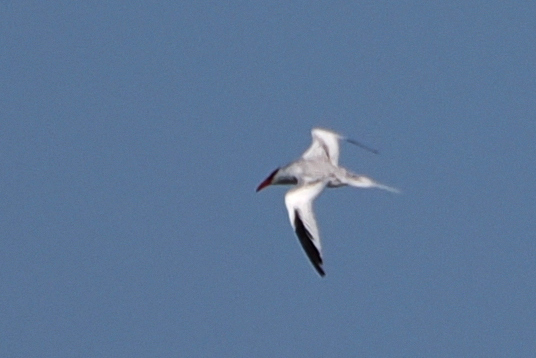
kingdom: Animalia
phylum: Chordata
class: Aves
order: Phaethontiformes
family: Phaethontidae
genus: Phaethon
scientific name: Phaethon aethereus
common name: Red-billed tropicbird
